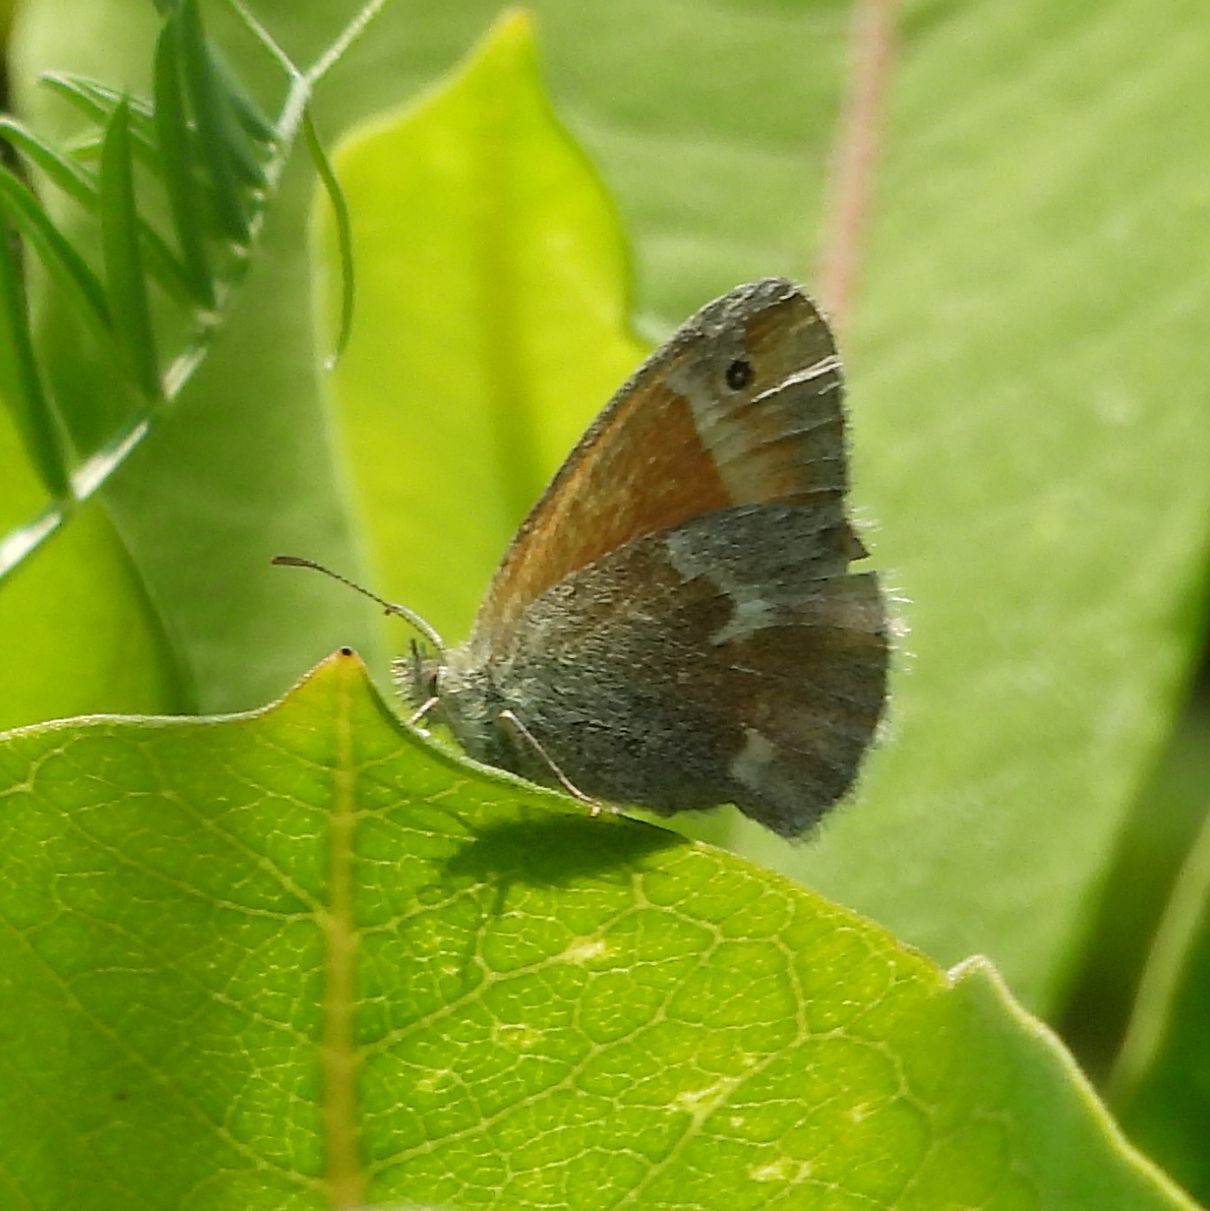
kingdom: Animalia
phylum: Arthropoda
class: Insecta
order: Lepidoptera
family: Nymphalidae
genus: Coenonympha
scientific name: Coenonympha california
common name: Common ringlet
